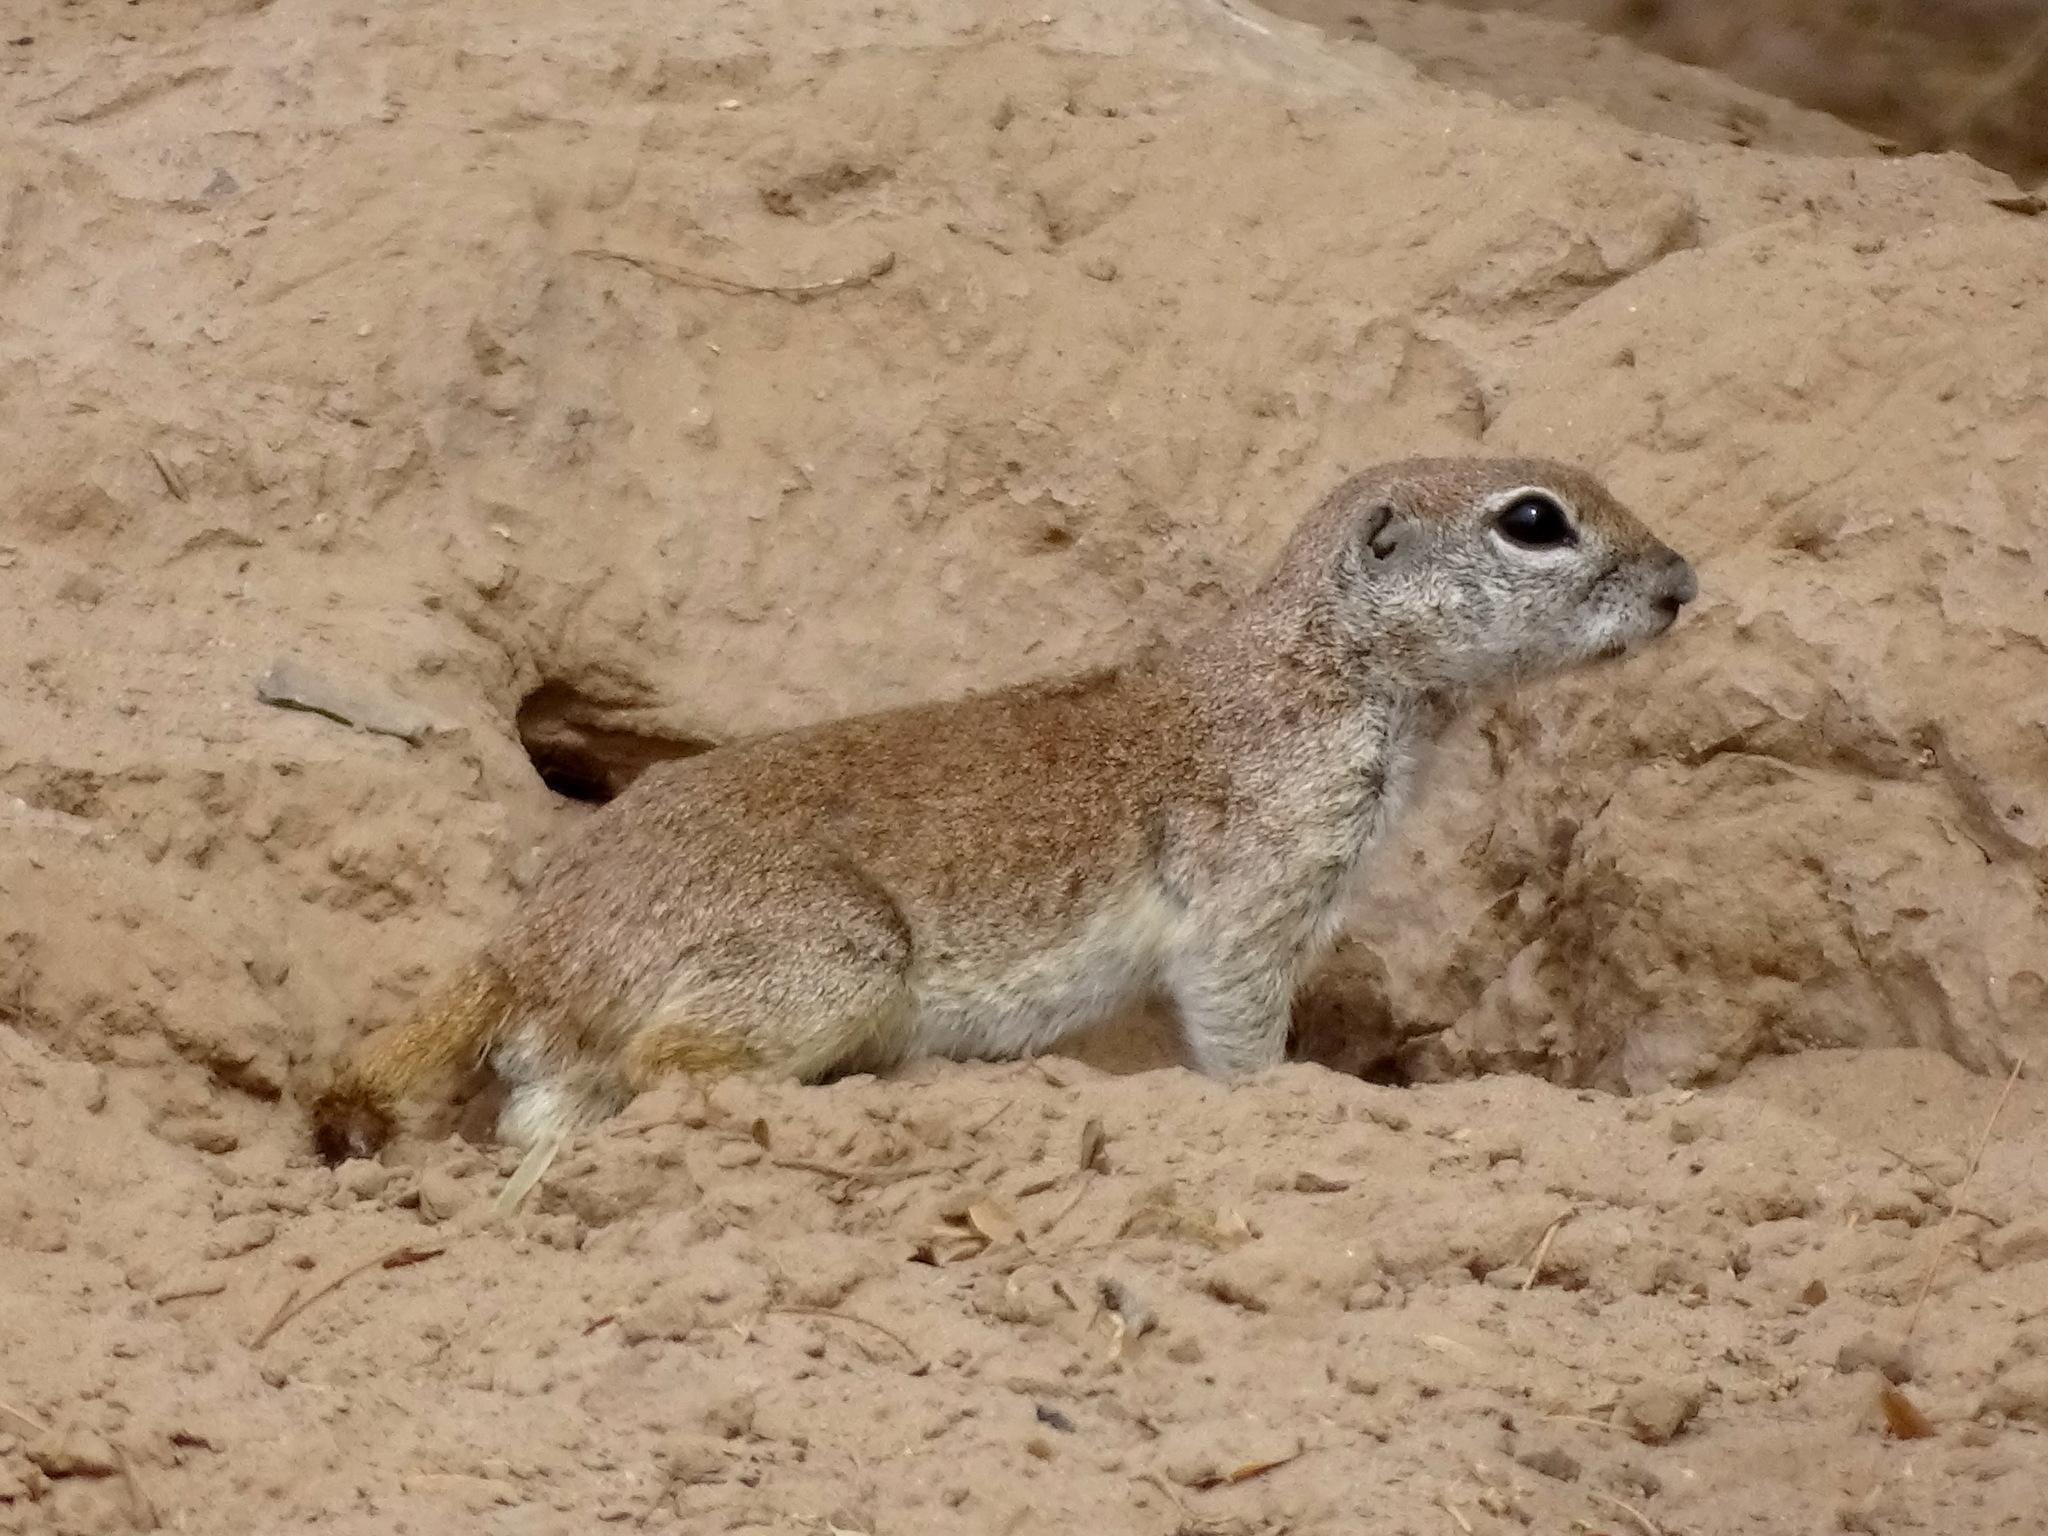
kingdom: Animalia
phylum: Chordata
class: Mammalia
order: Rodentia
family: Sciuridae
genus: Xerospermophilus
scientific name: Xerospermophilus tereticaudus
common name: Round-tailed ground squirrel
